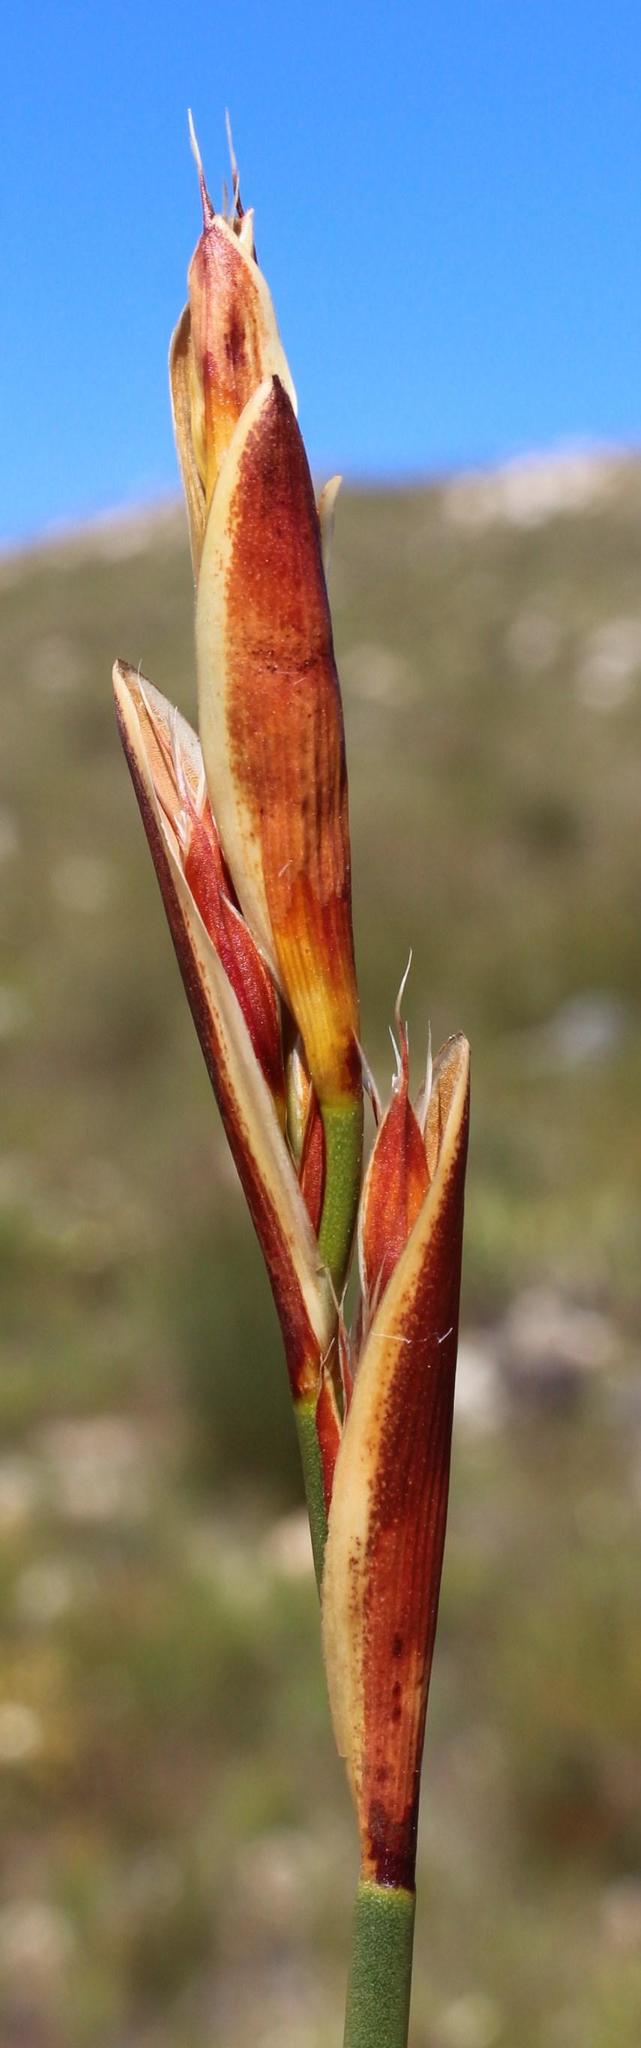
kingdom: Plantae
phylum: Tracheophyta
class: Liliopsida
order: Poales
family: Restionaceae
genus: Hypodiscus
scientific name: Hypodiscus aristatus
